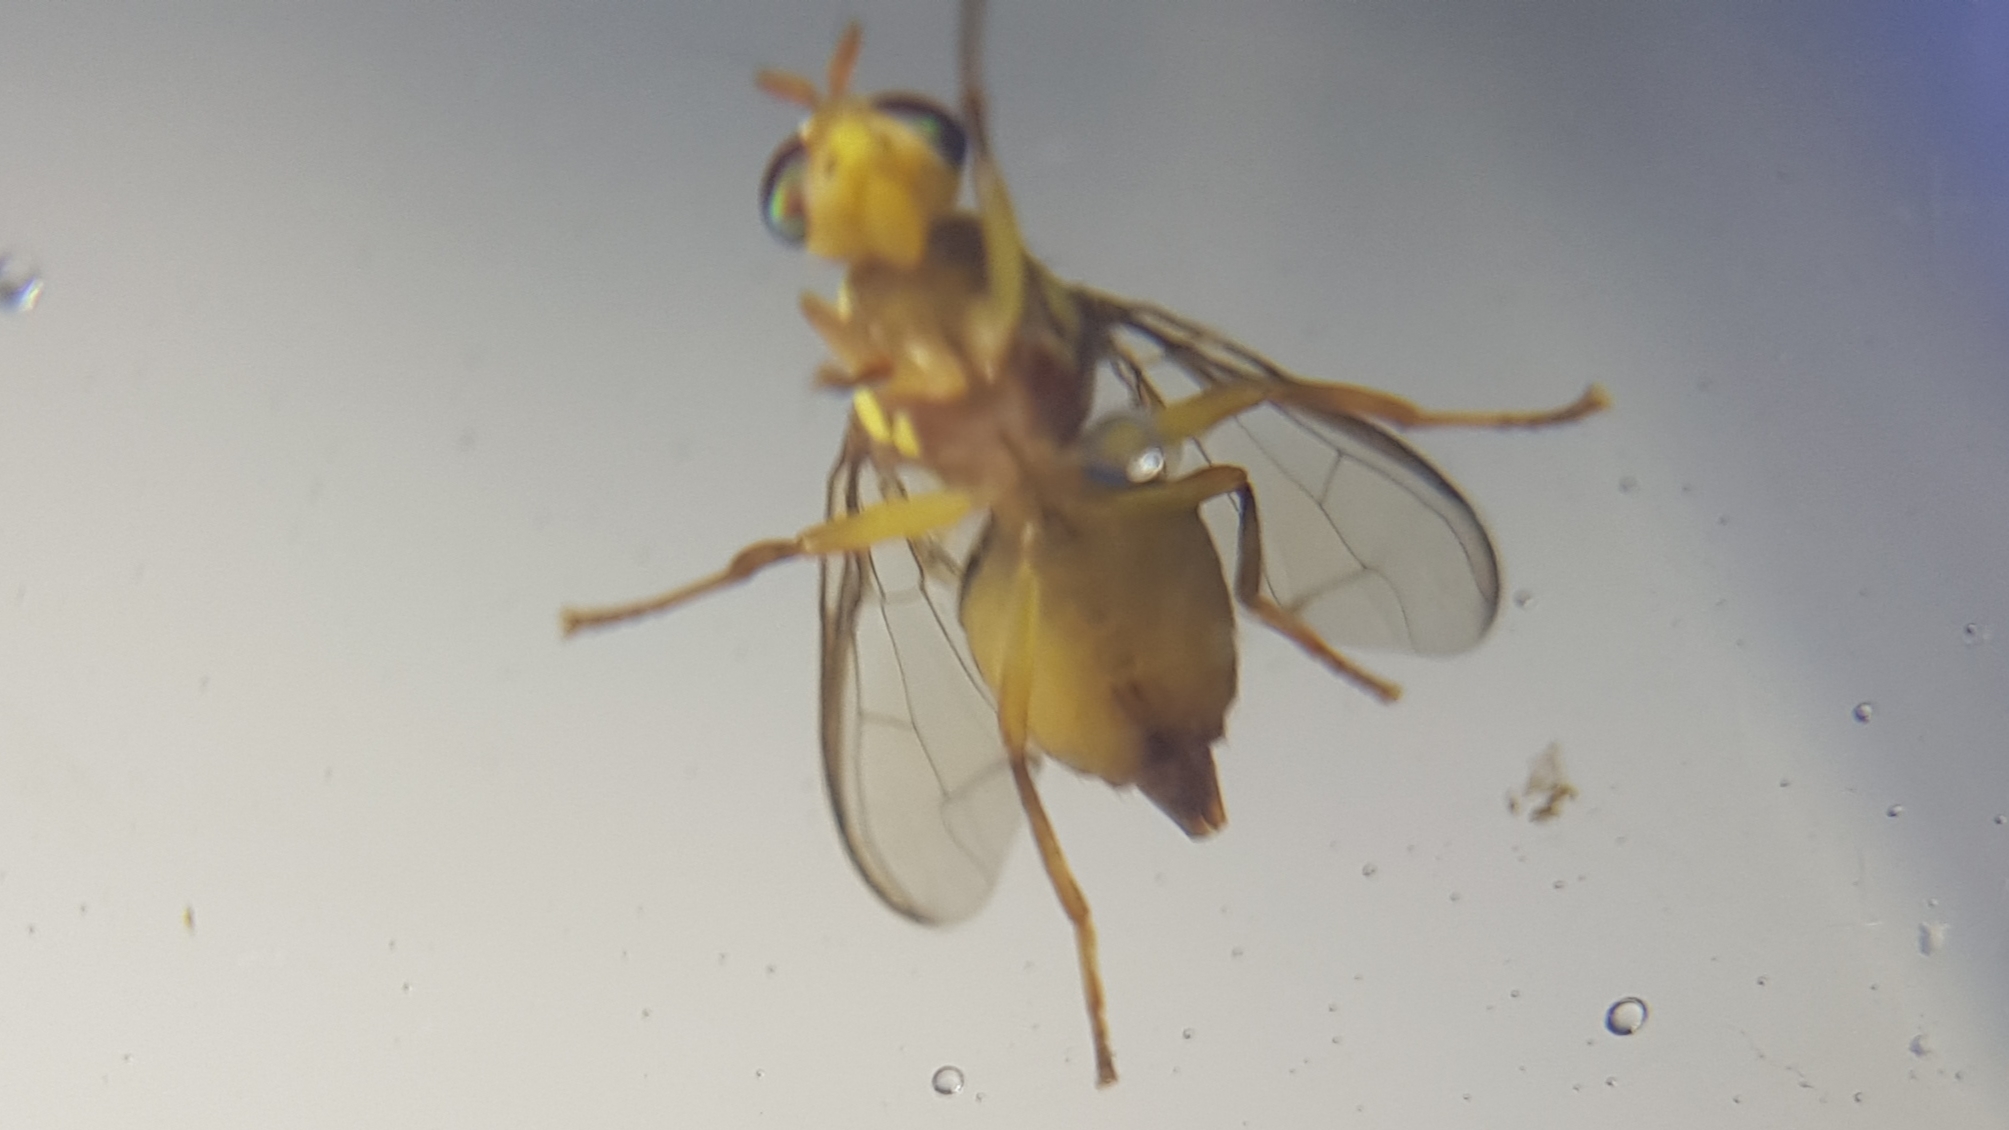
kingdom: Animalia
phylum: Arthropoda
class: Insecta
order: Diptera
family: Tephritidae
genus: Zeugodacus
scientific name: Zeugodacus cucumis
